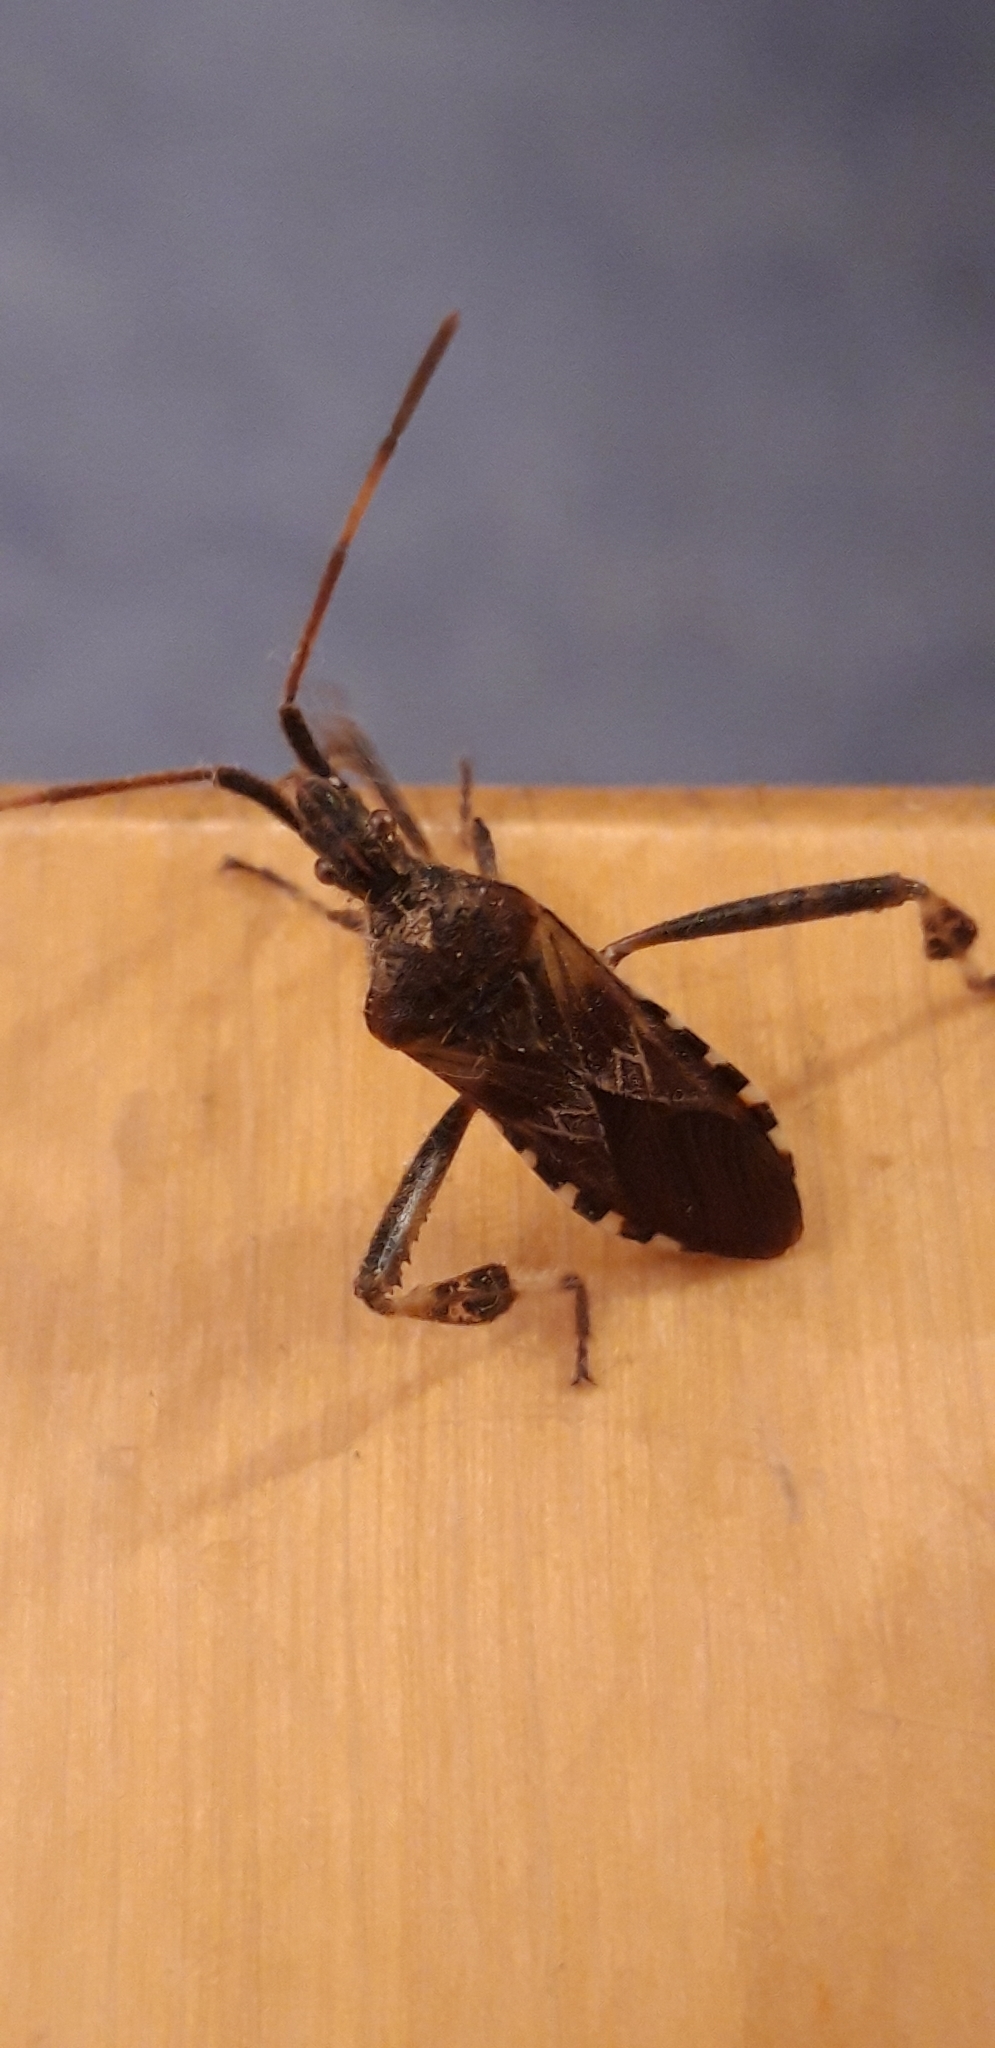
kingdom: Animalia
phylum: Arthropoda
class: Insecta
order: Hemiptera
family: Coreidae
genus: Leptoglossus
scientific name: Leptoglossus occidentalis
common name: Western conifer-seed bug
